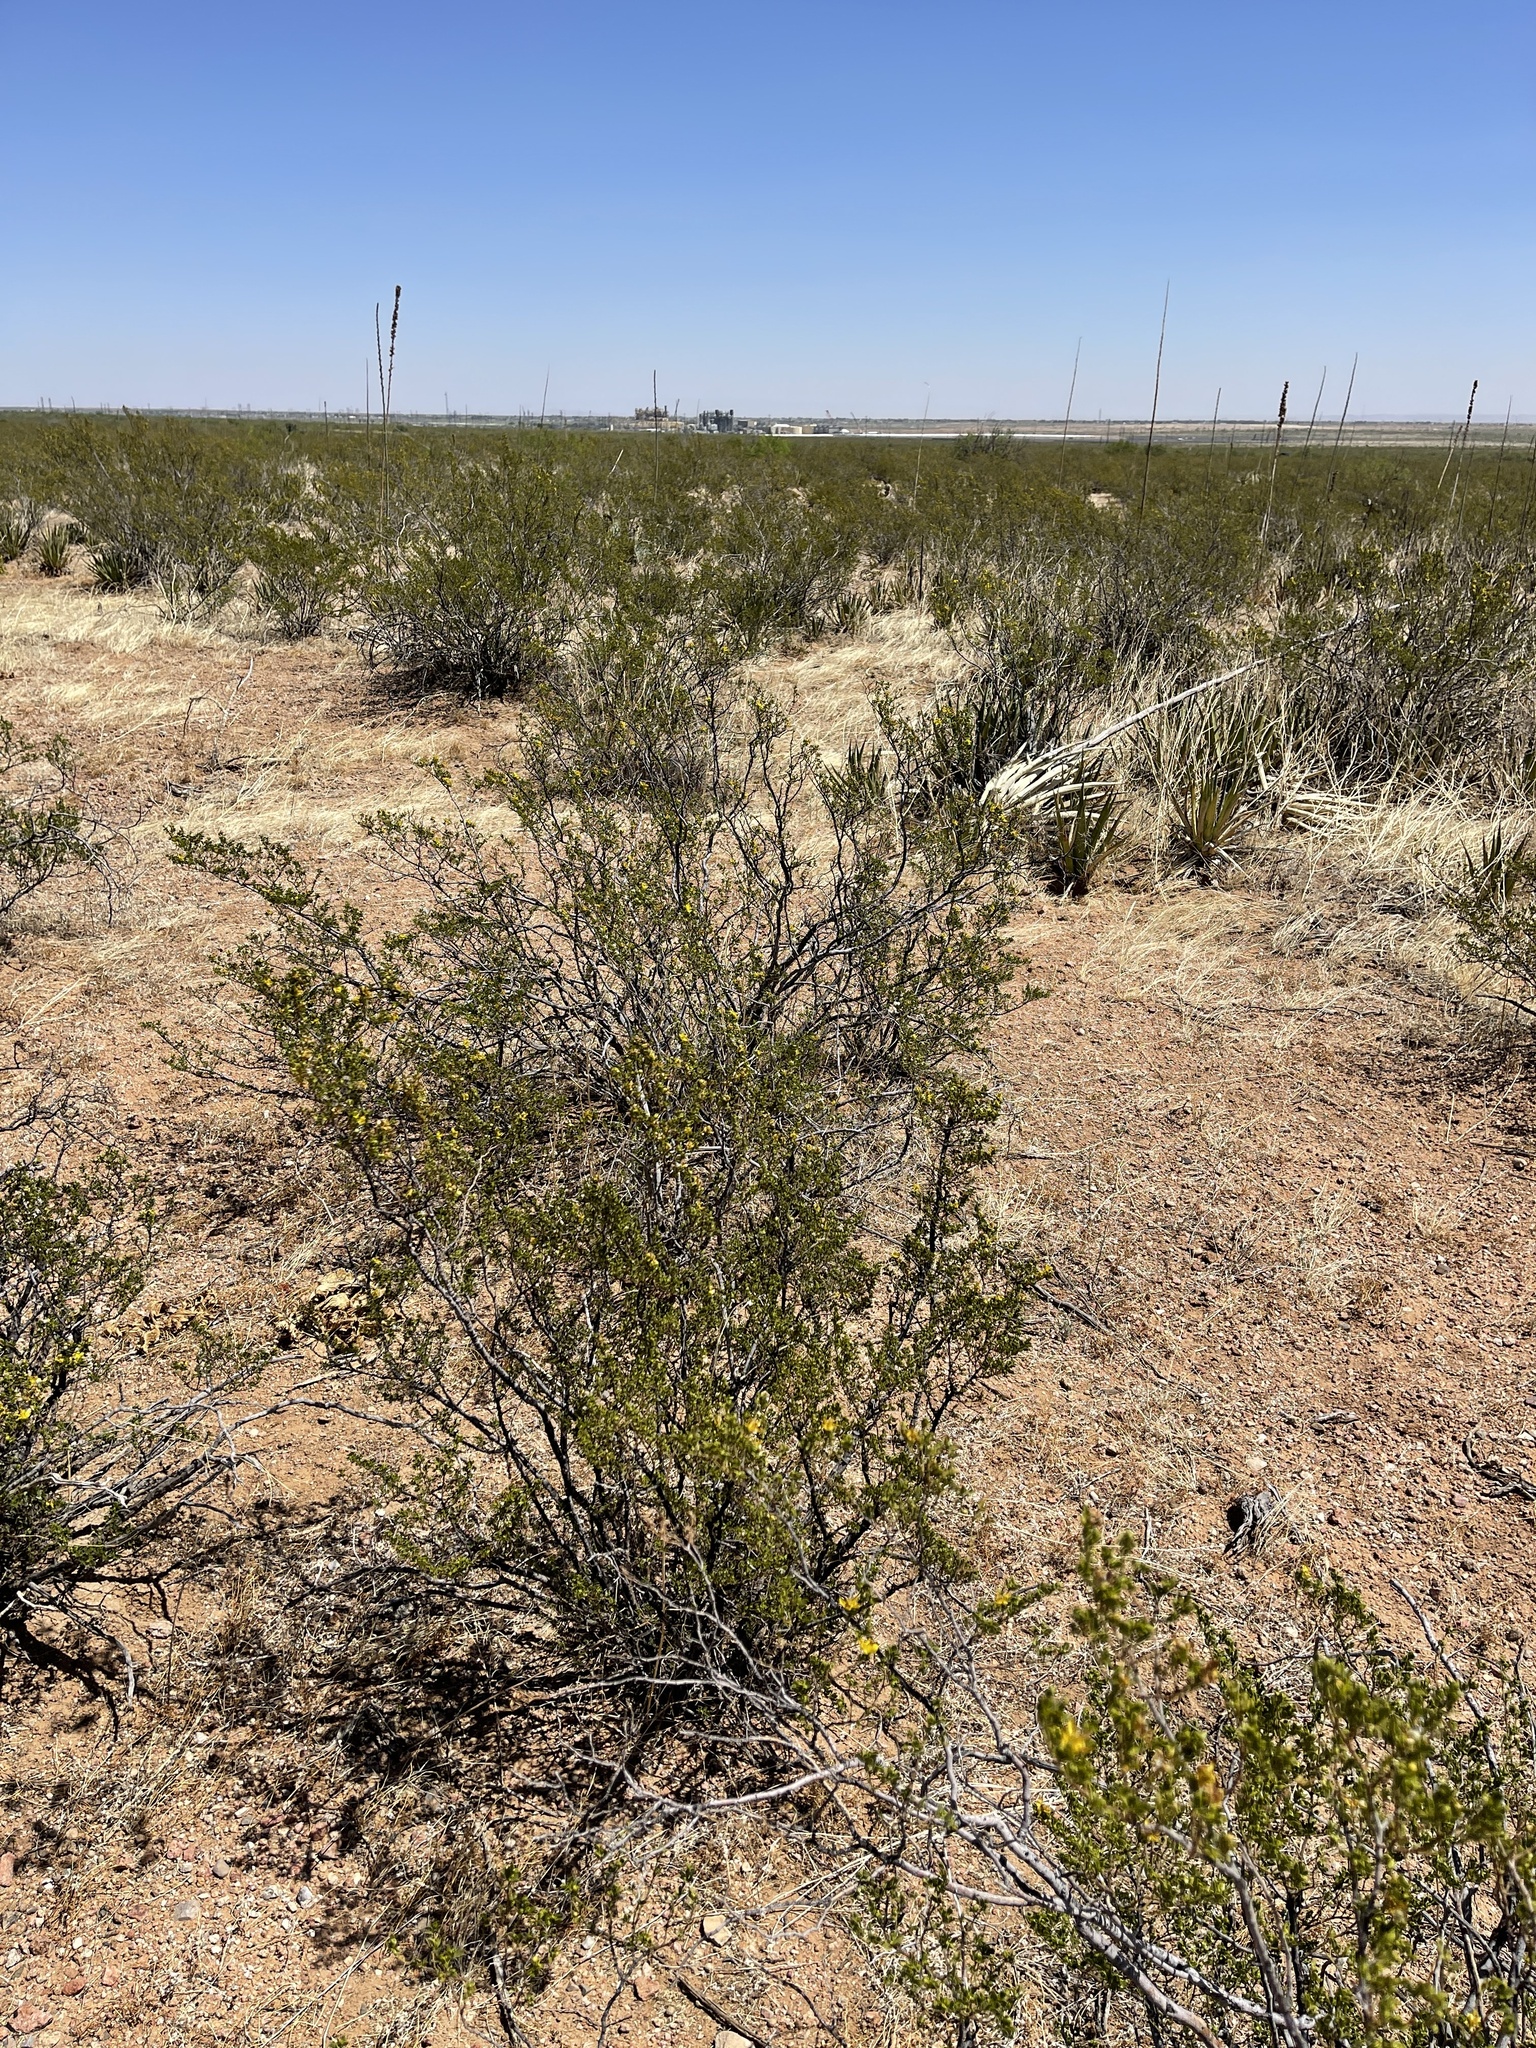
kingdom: Plantae
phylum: Tracheophyta
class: Magnoliopsida
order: Zygophyllales
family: Zygophyllaceae
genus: Larrea
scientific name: Larrea tridentata
